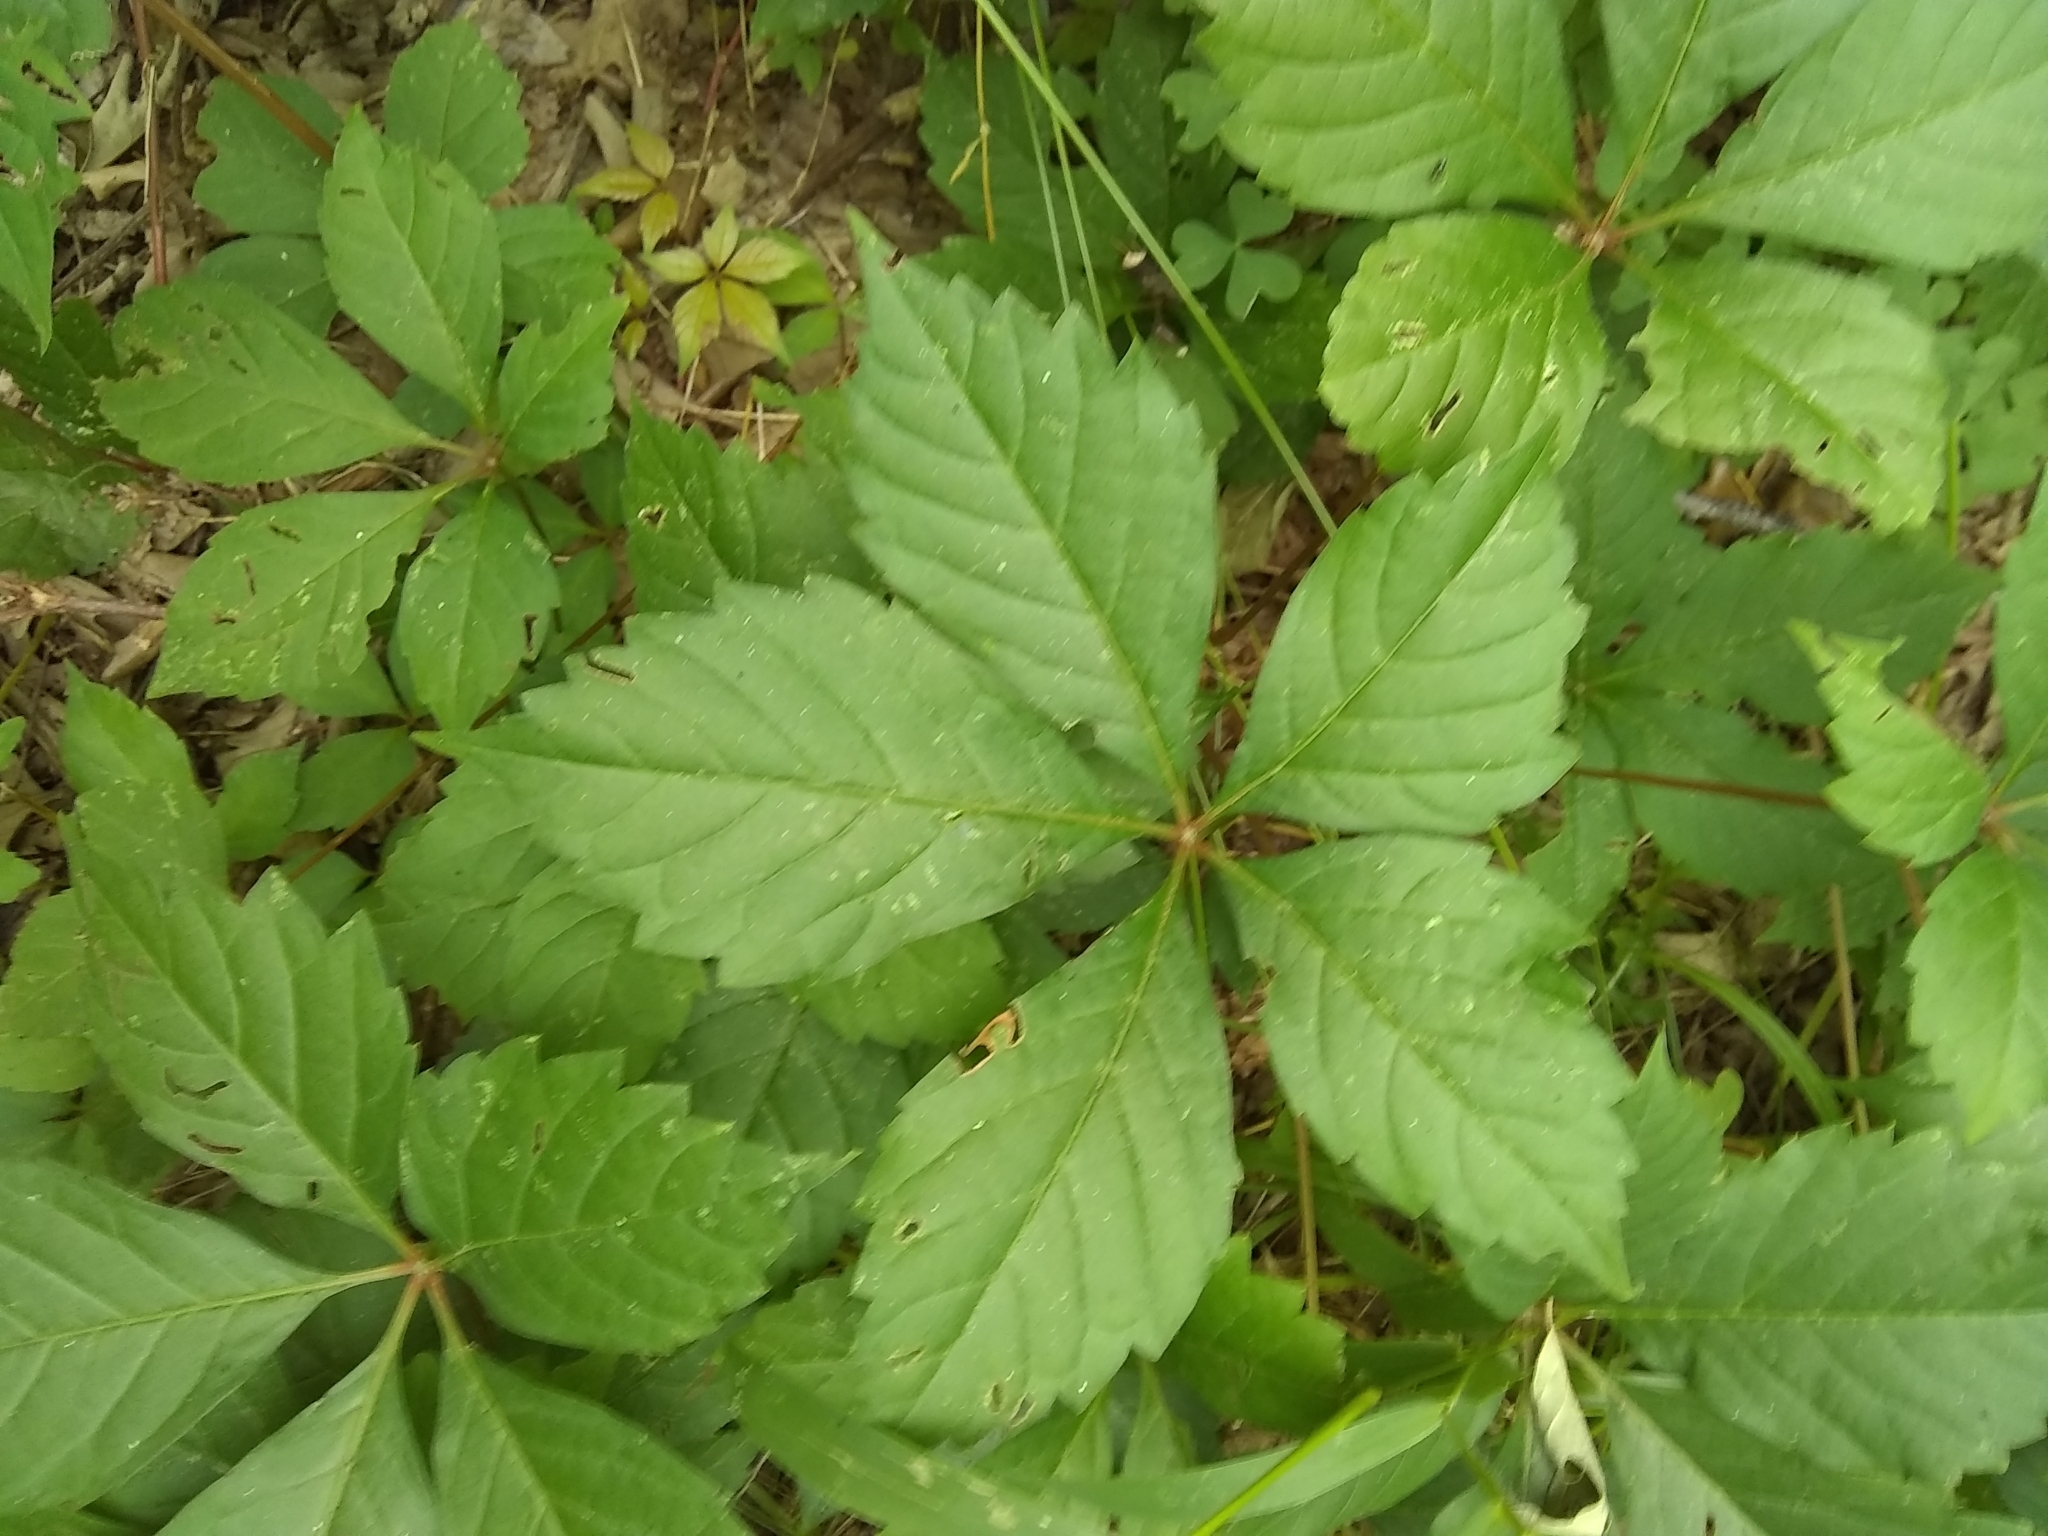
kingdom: Plantae
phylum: Tracheophyta
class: Magnoliopsida
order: Vitales
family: Vitaceae
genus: Parthenocissus
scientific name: Parthenocissus quinquefolia
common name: Virginia-creeper
